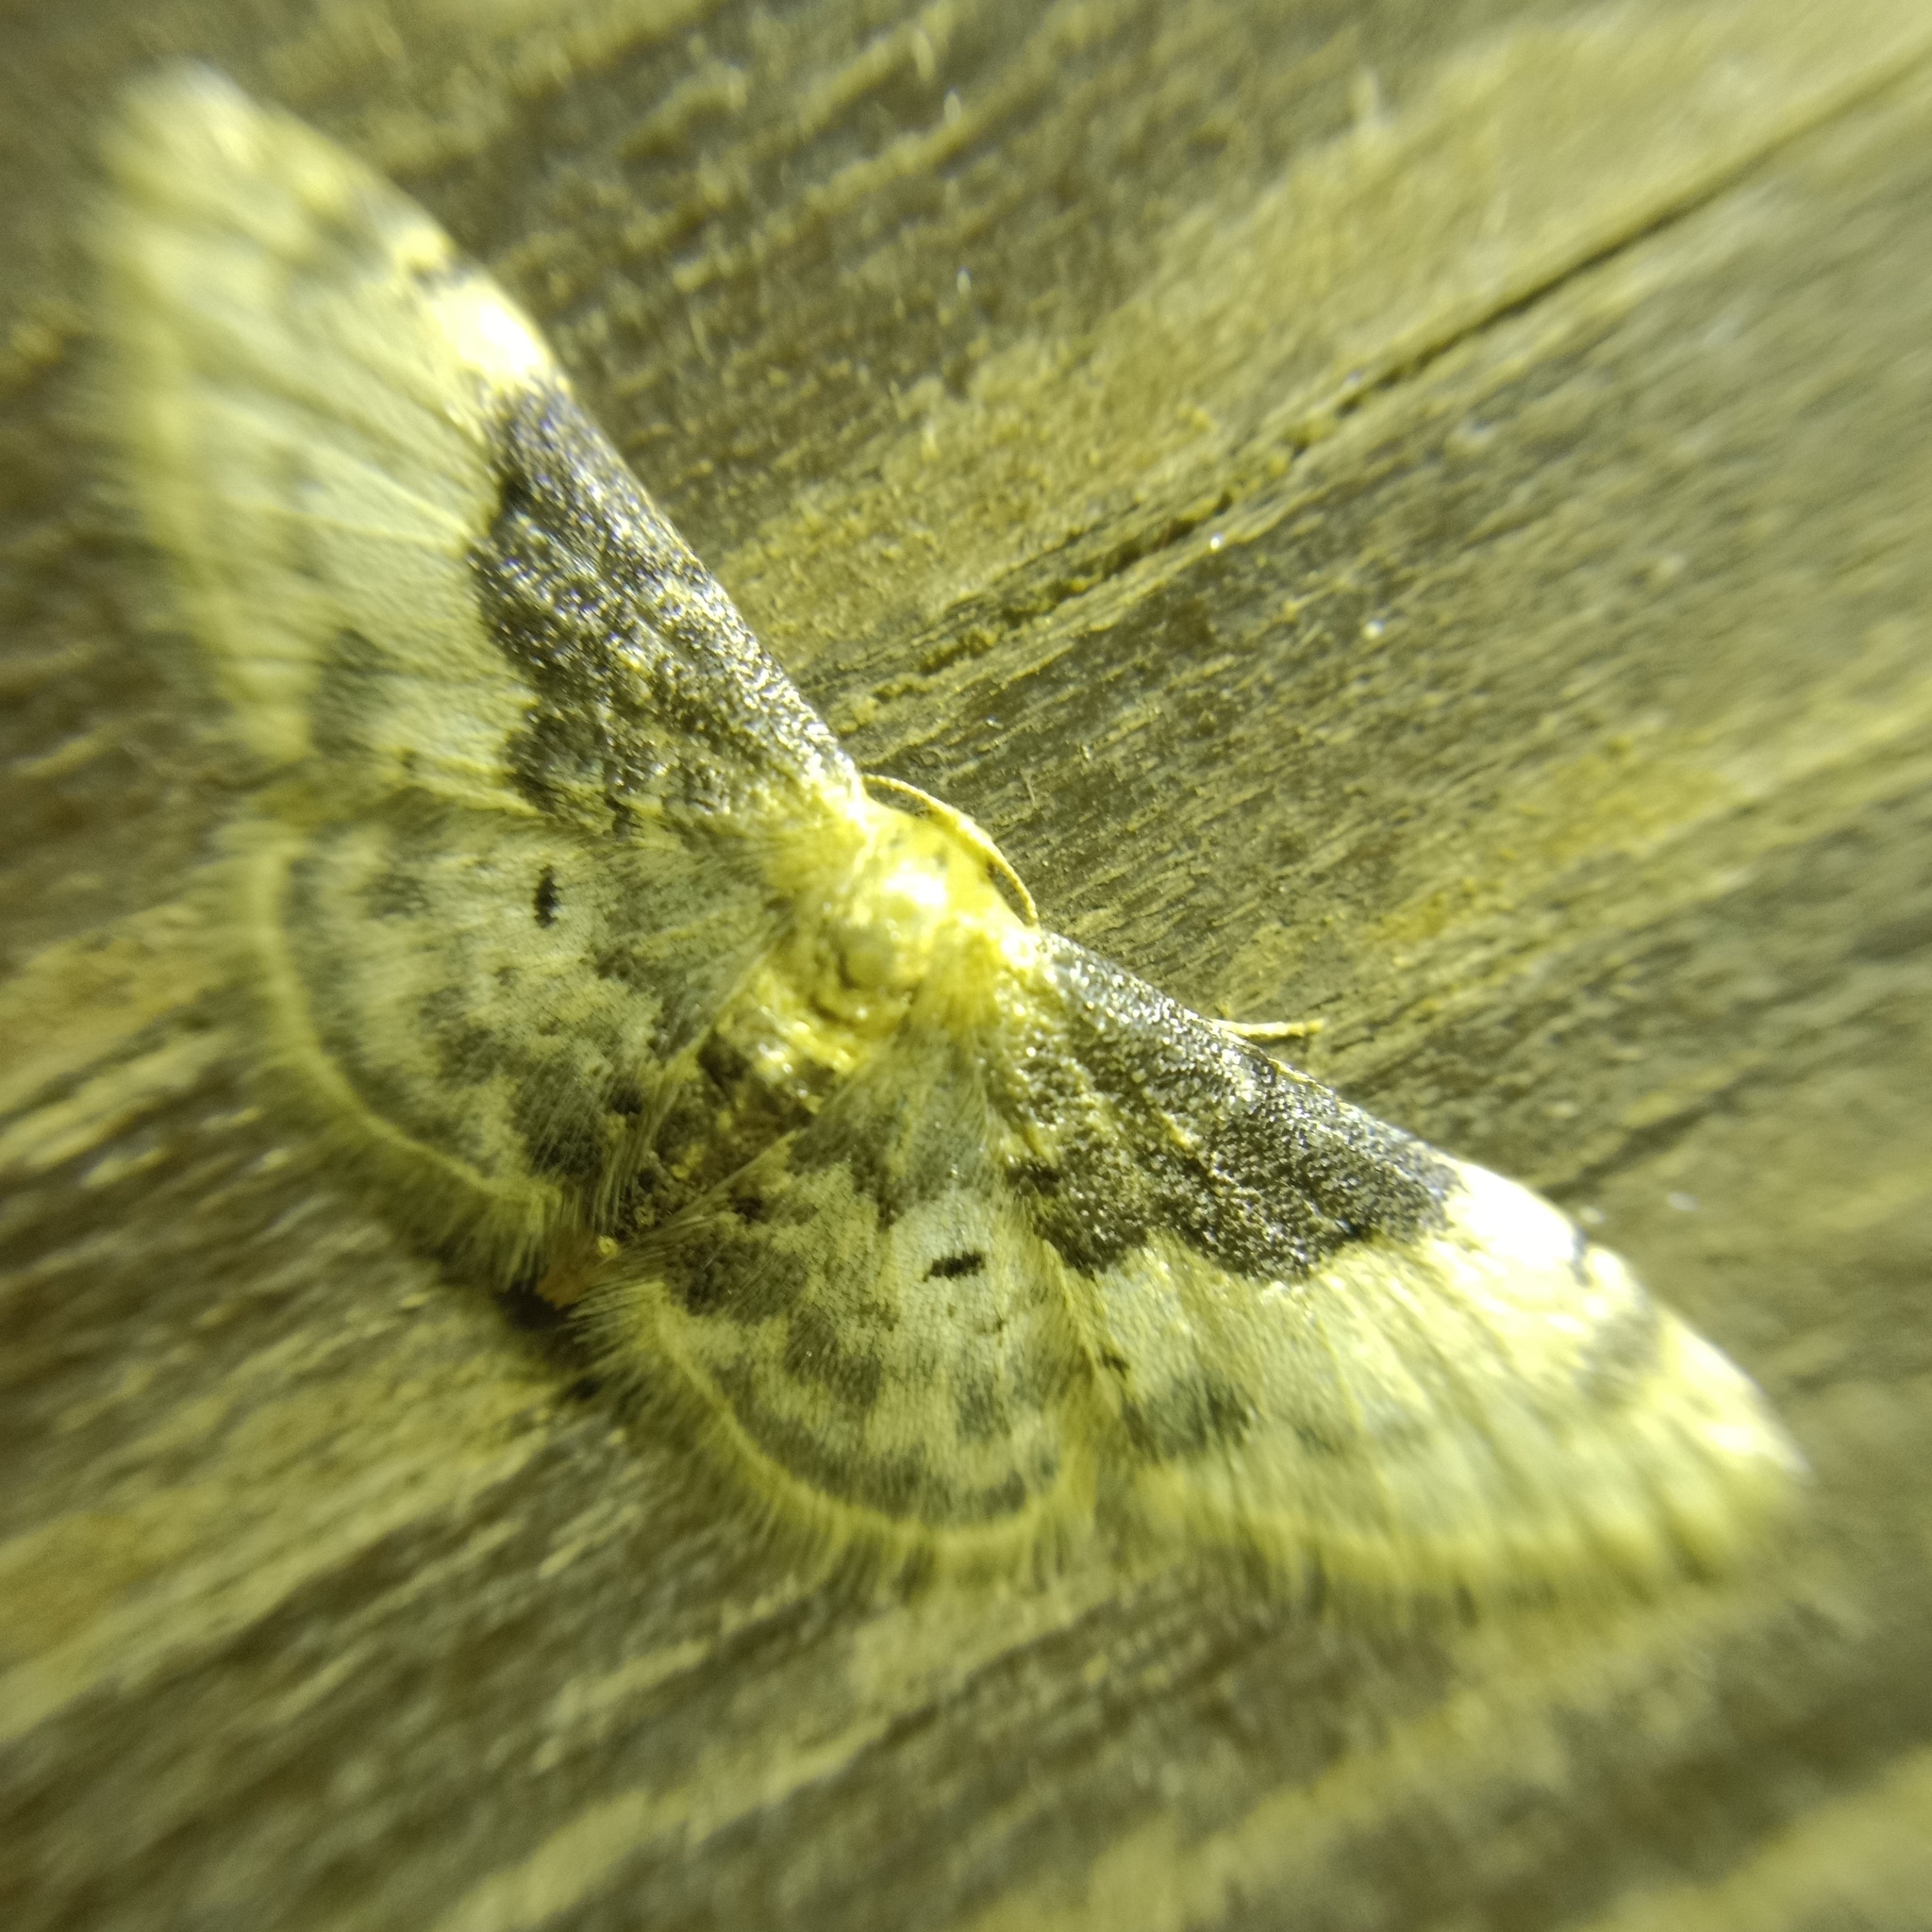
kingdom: Animalia
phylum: Arthropoda
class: Insecta
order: Lepidoptera
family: Geometridae
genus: Idaea
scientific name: Idaea filicata
